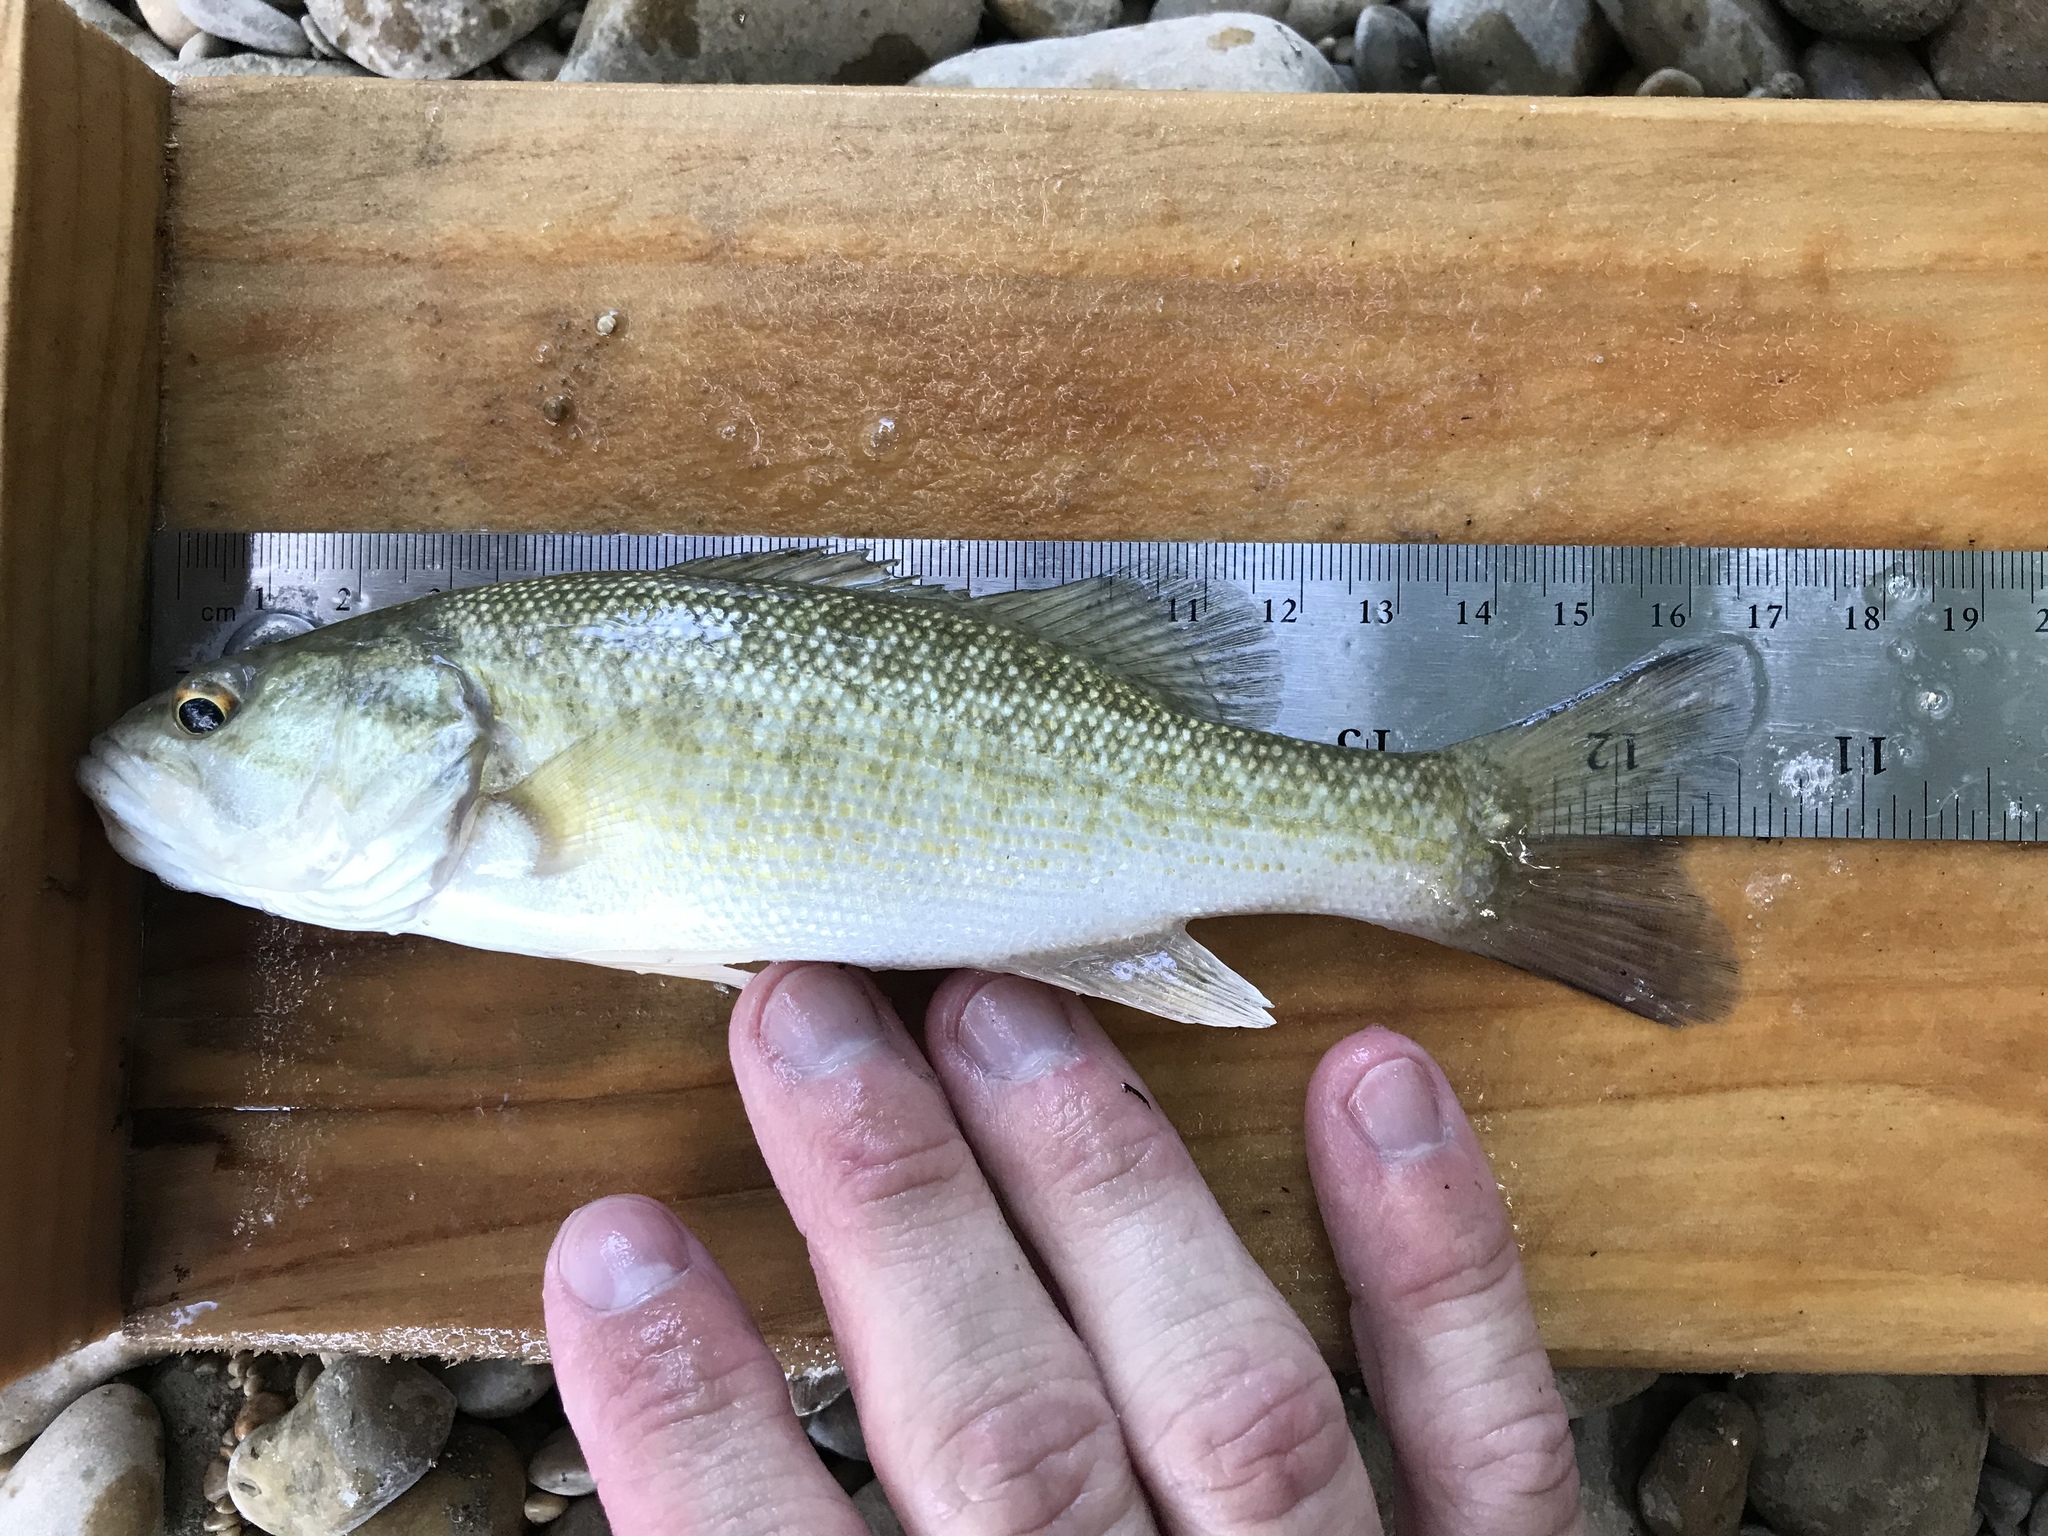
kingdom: Animalia
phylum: Chordata
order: Perciformes
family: Centrarchidae
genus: Micropterus
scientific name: Micropterus treculii
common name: Guadalupe bass
